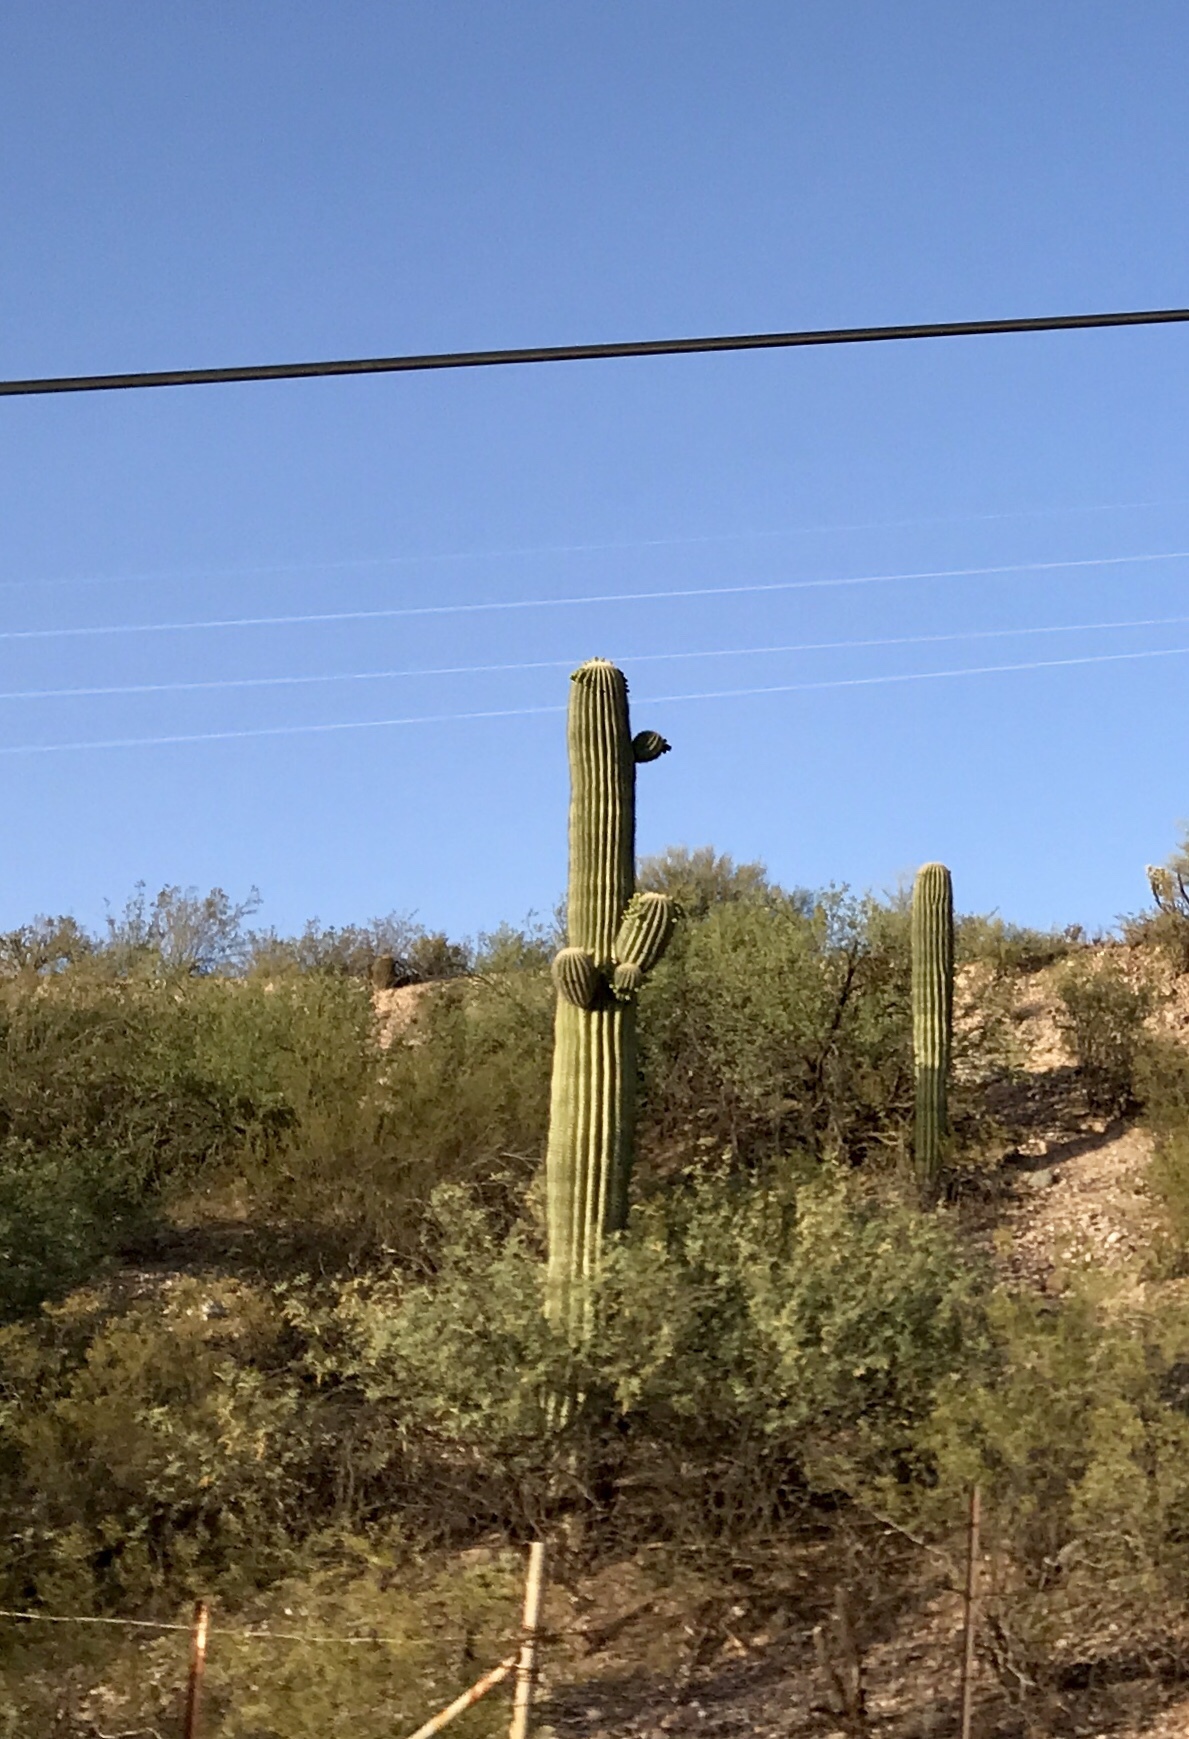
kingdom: Plantae
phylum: Tracheophyta
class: Magnoliopsida
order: Caryophyllales
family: Cactaceae
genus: Carnegiea
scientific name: Carnegiea gigantea
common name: Saguaro
